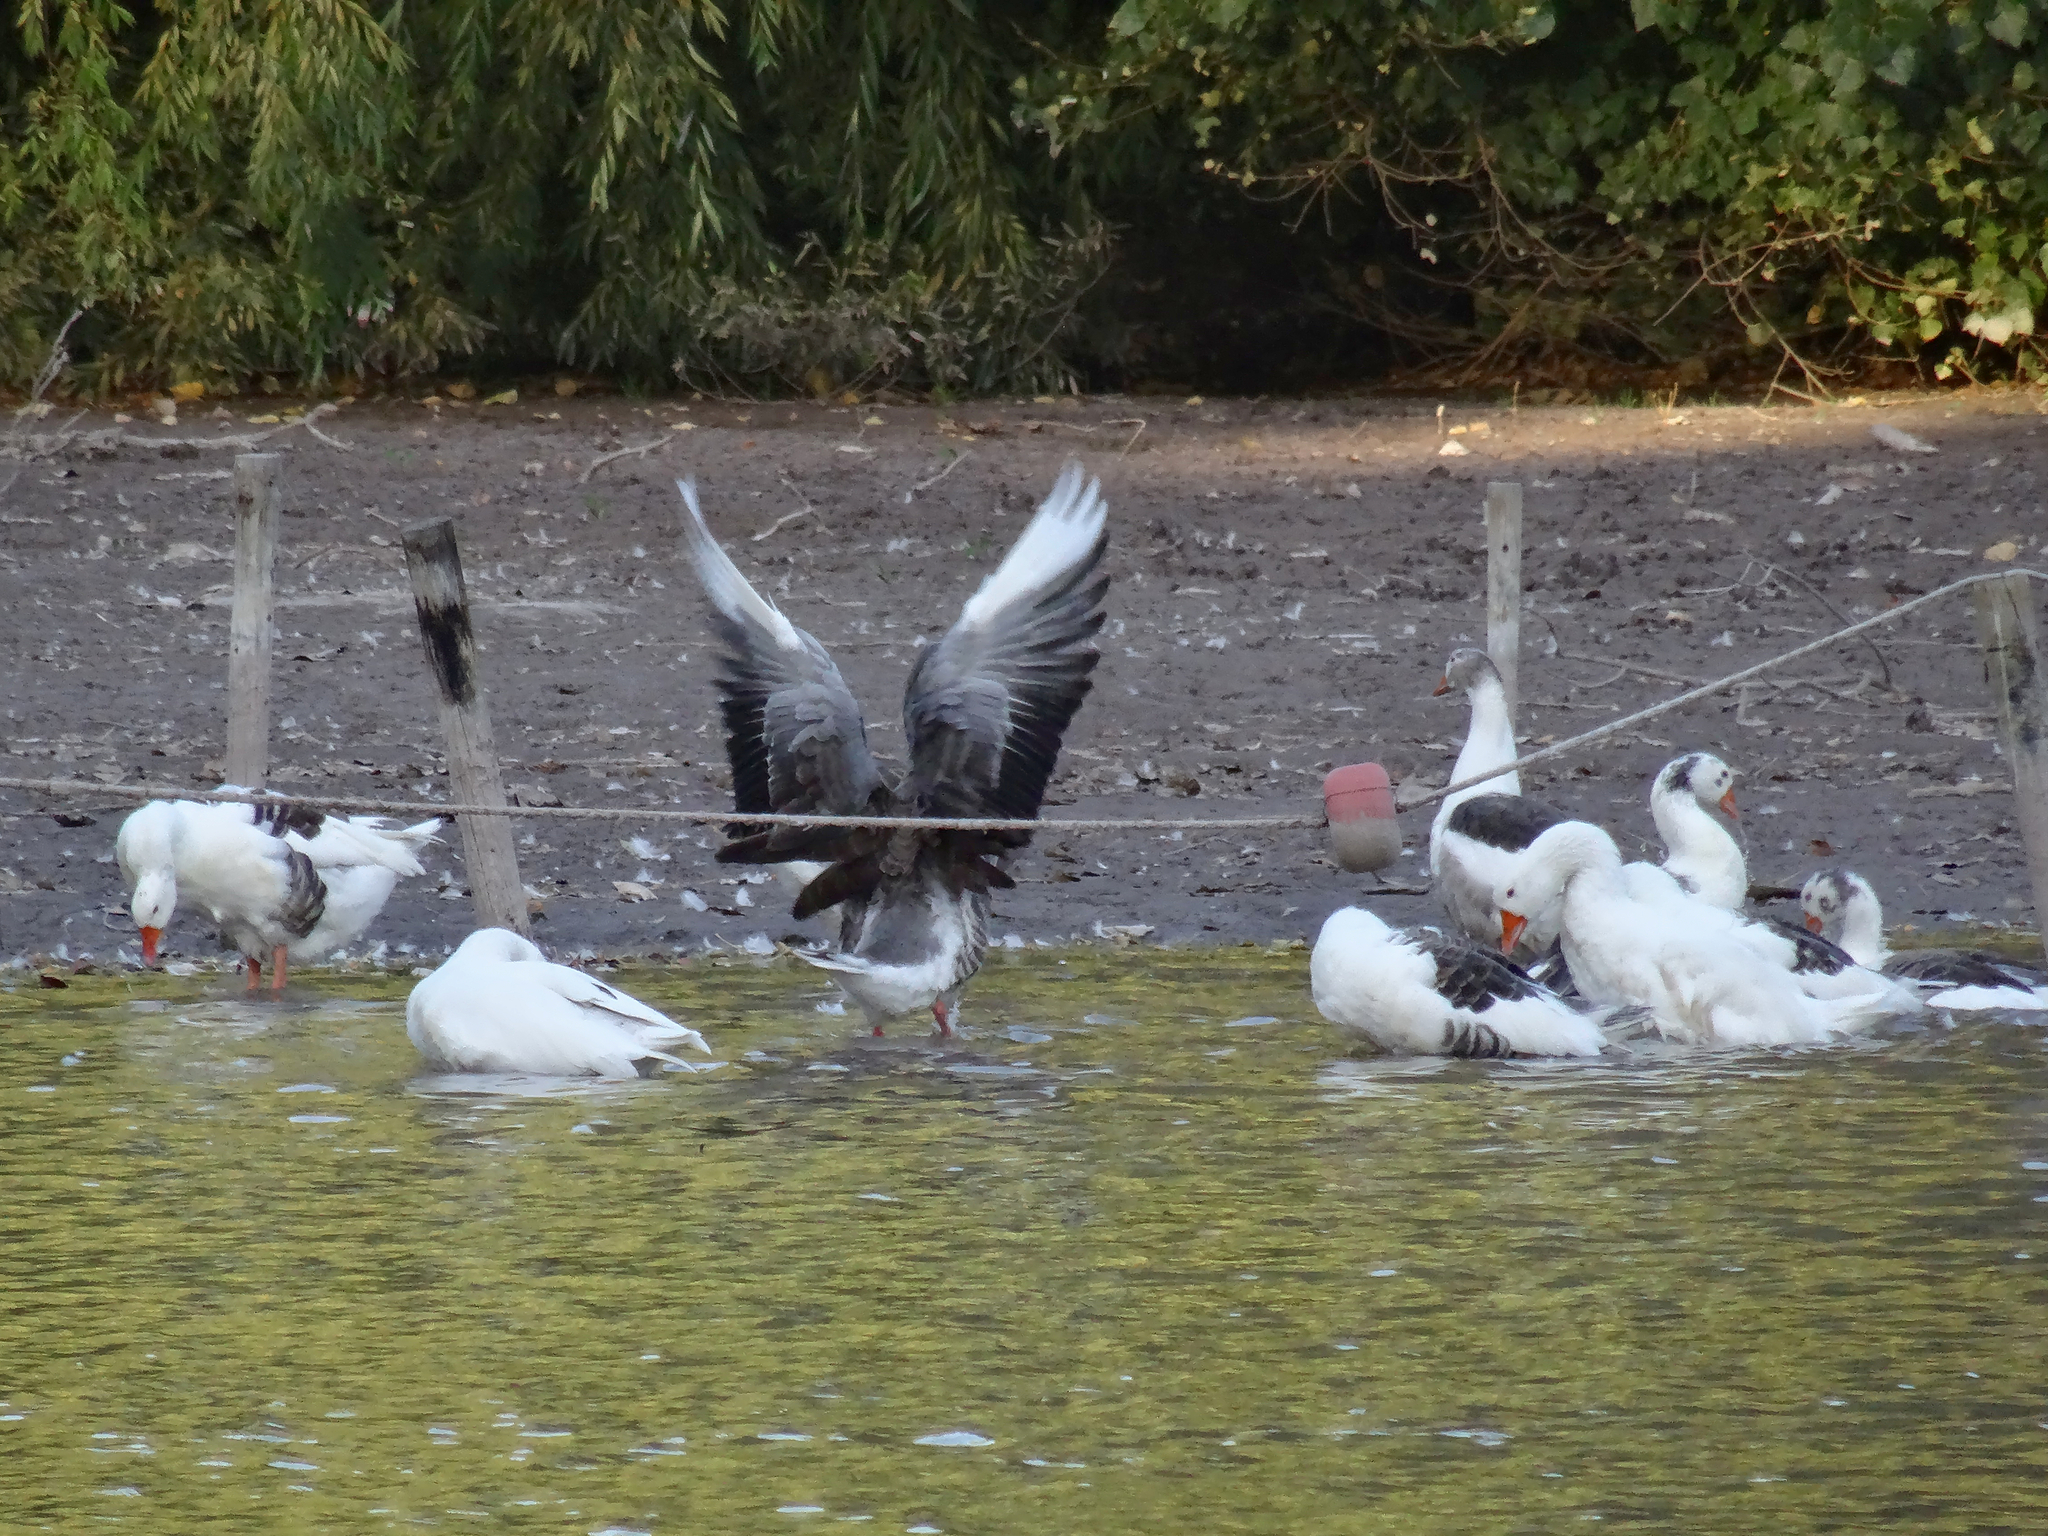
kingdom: Animalia
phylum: Chordata
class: Aves
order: Anseriformes
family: Anatidae
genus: Anser
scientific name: Anser anser
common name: Greylag goose
